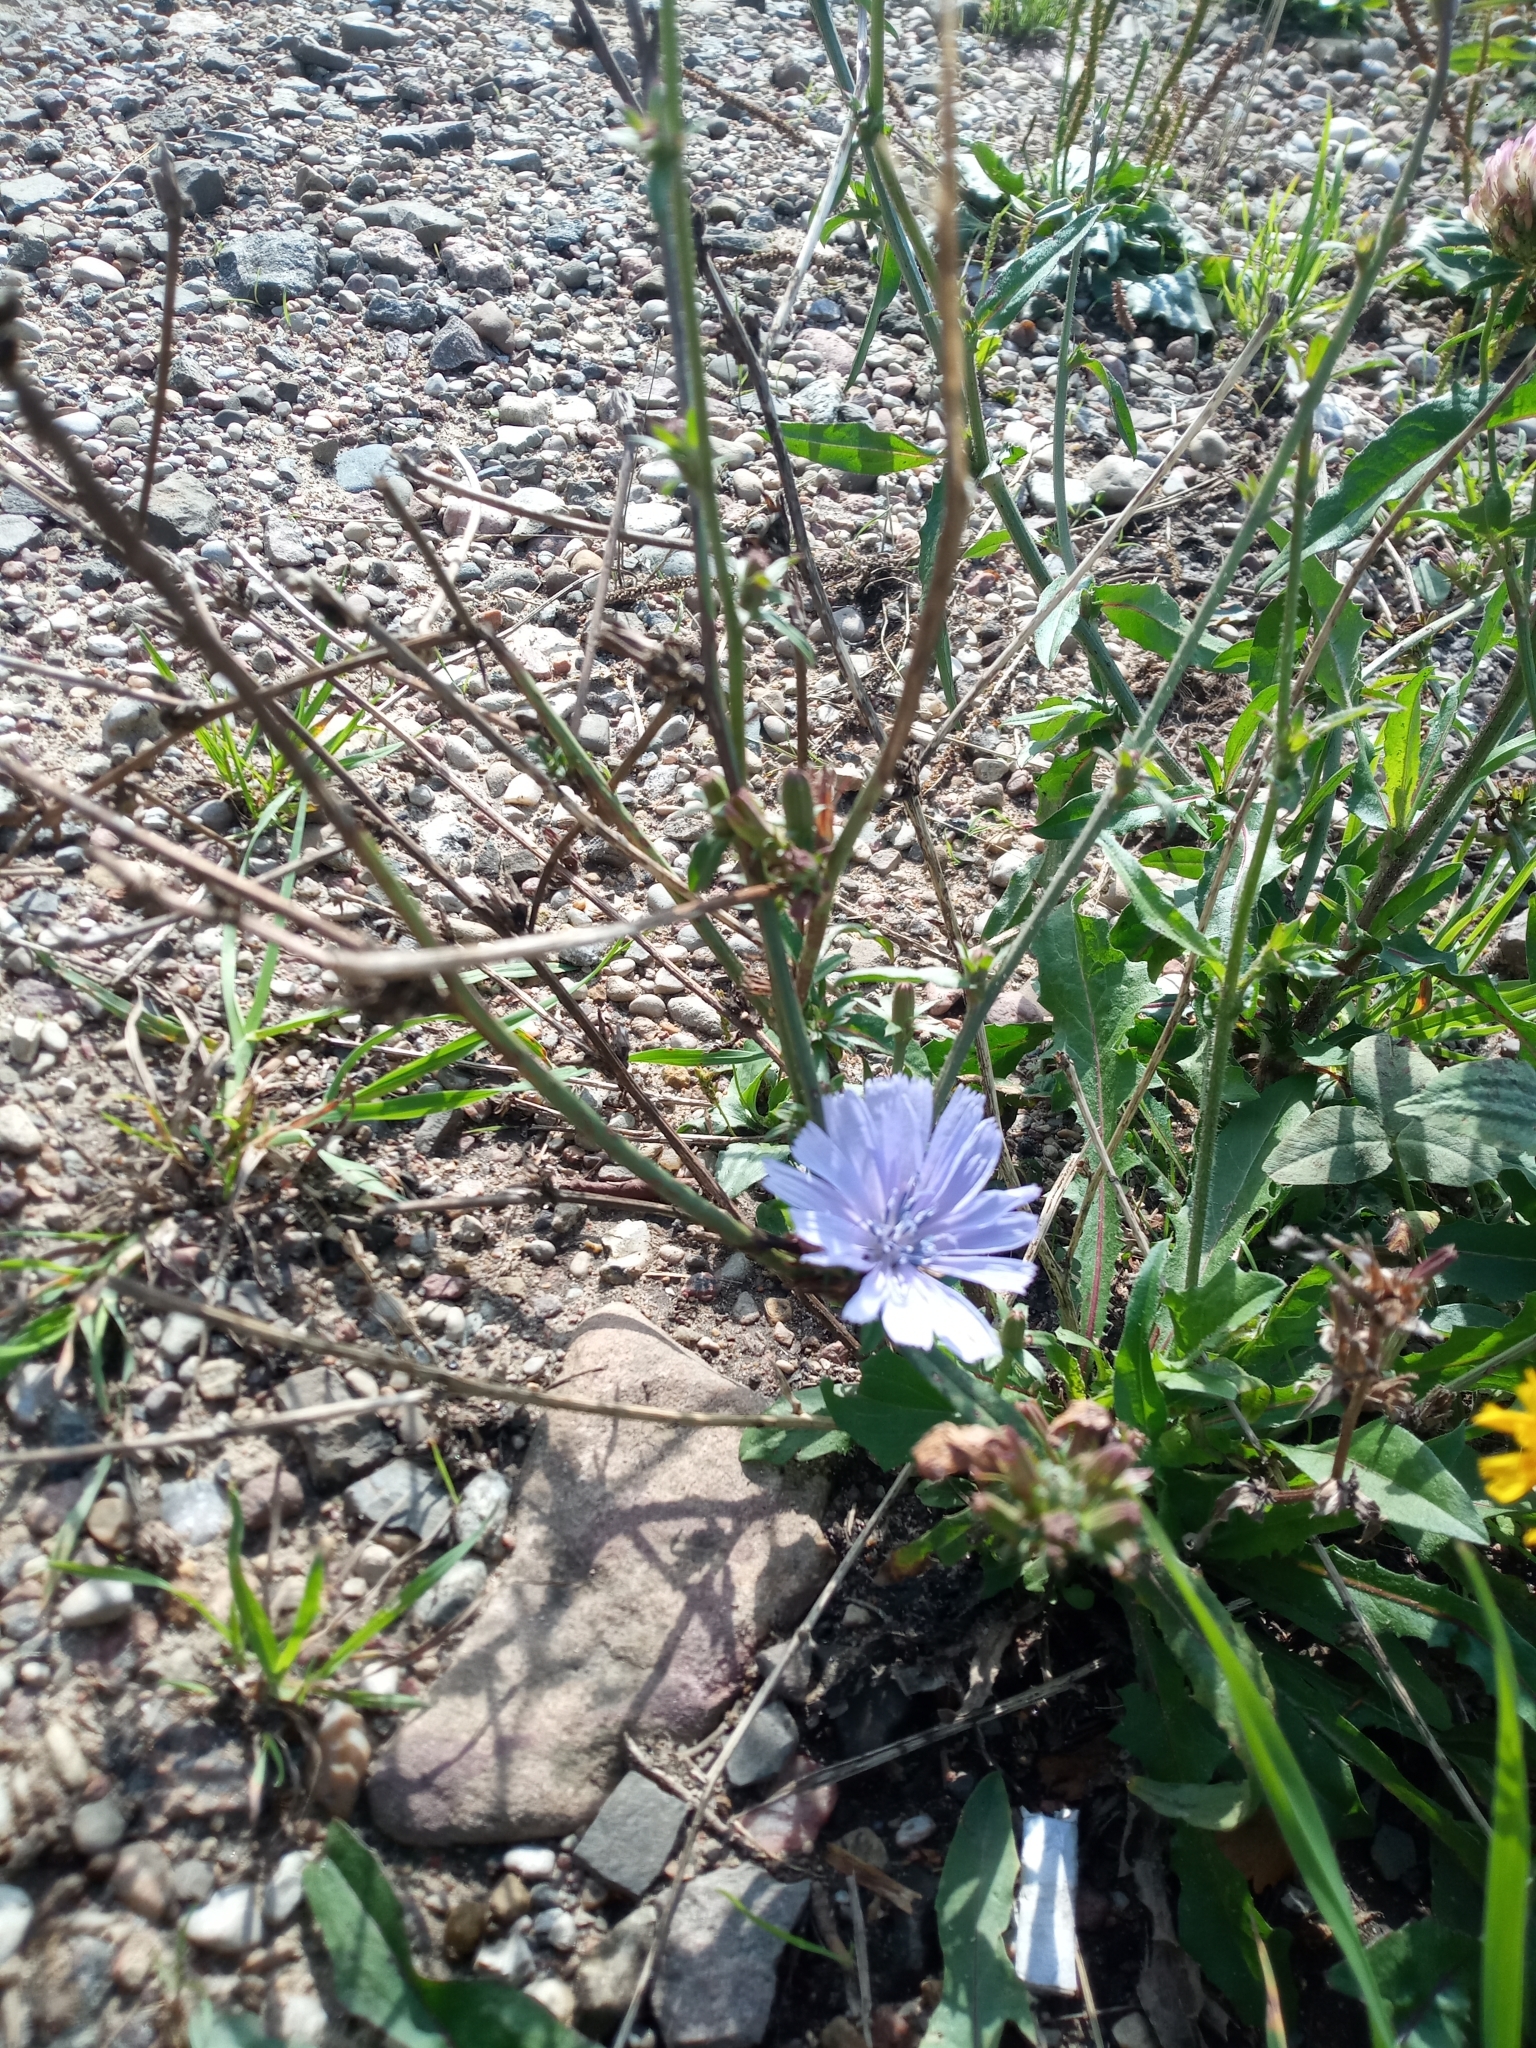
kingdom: Plantae
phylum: Tracheophyta
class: Magnoliopsida
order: Asterales
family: Asteraceae
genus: Cichorium
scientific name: Cichorium intybus
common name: Chicory
